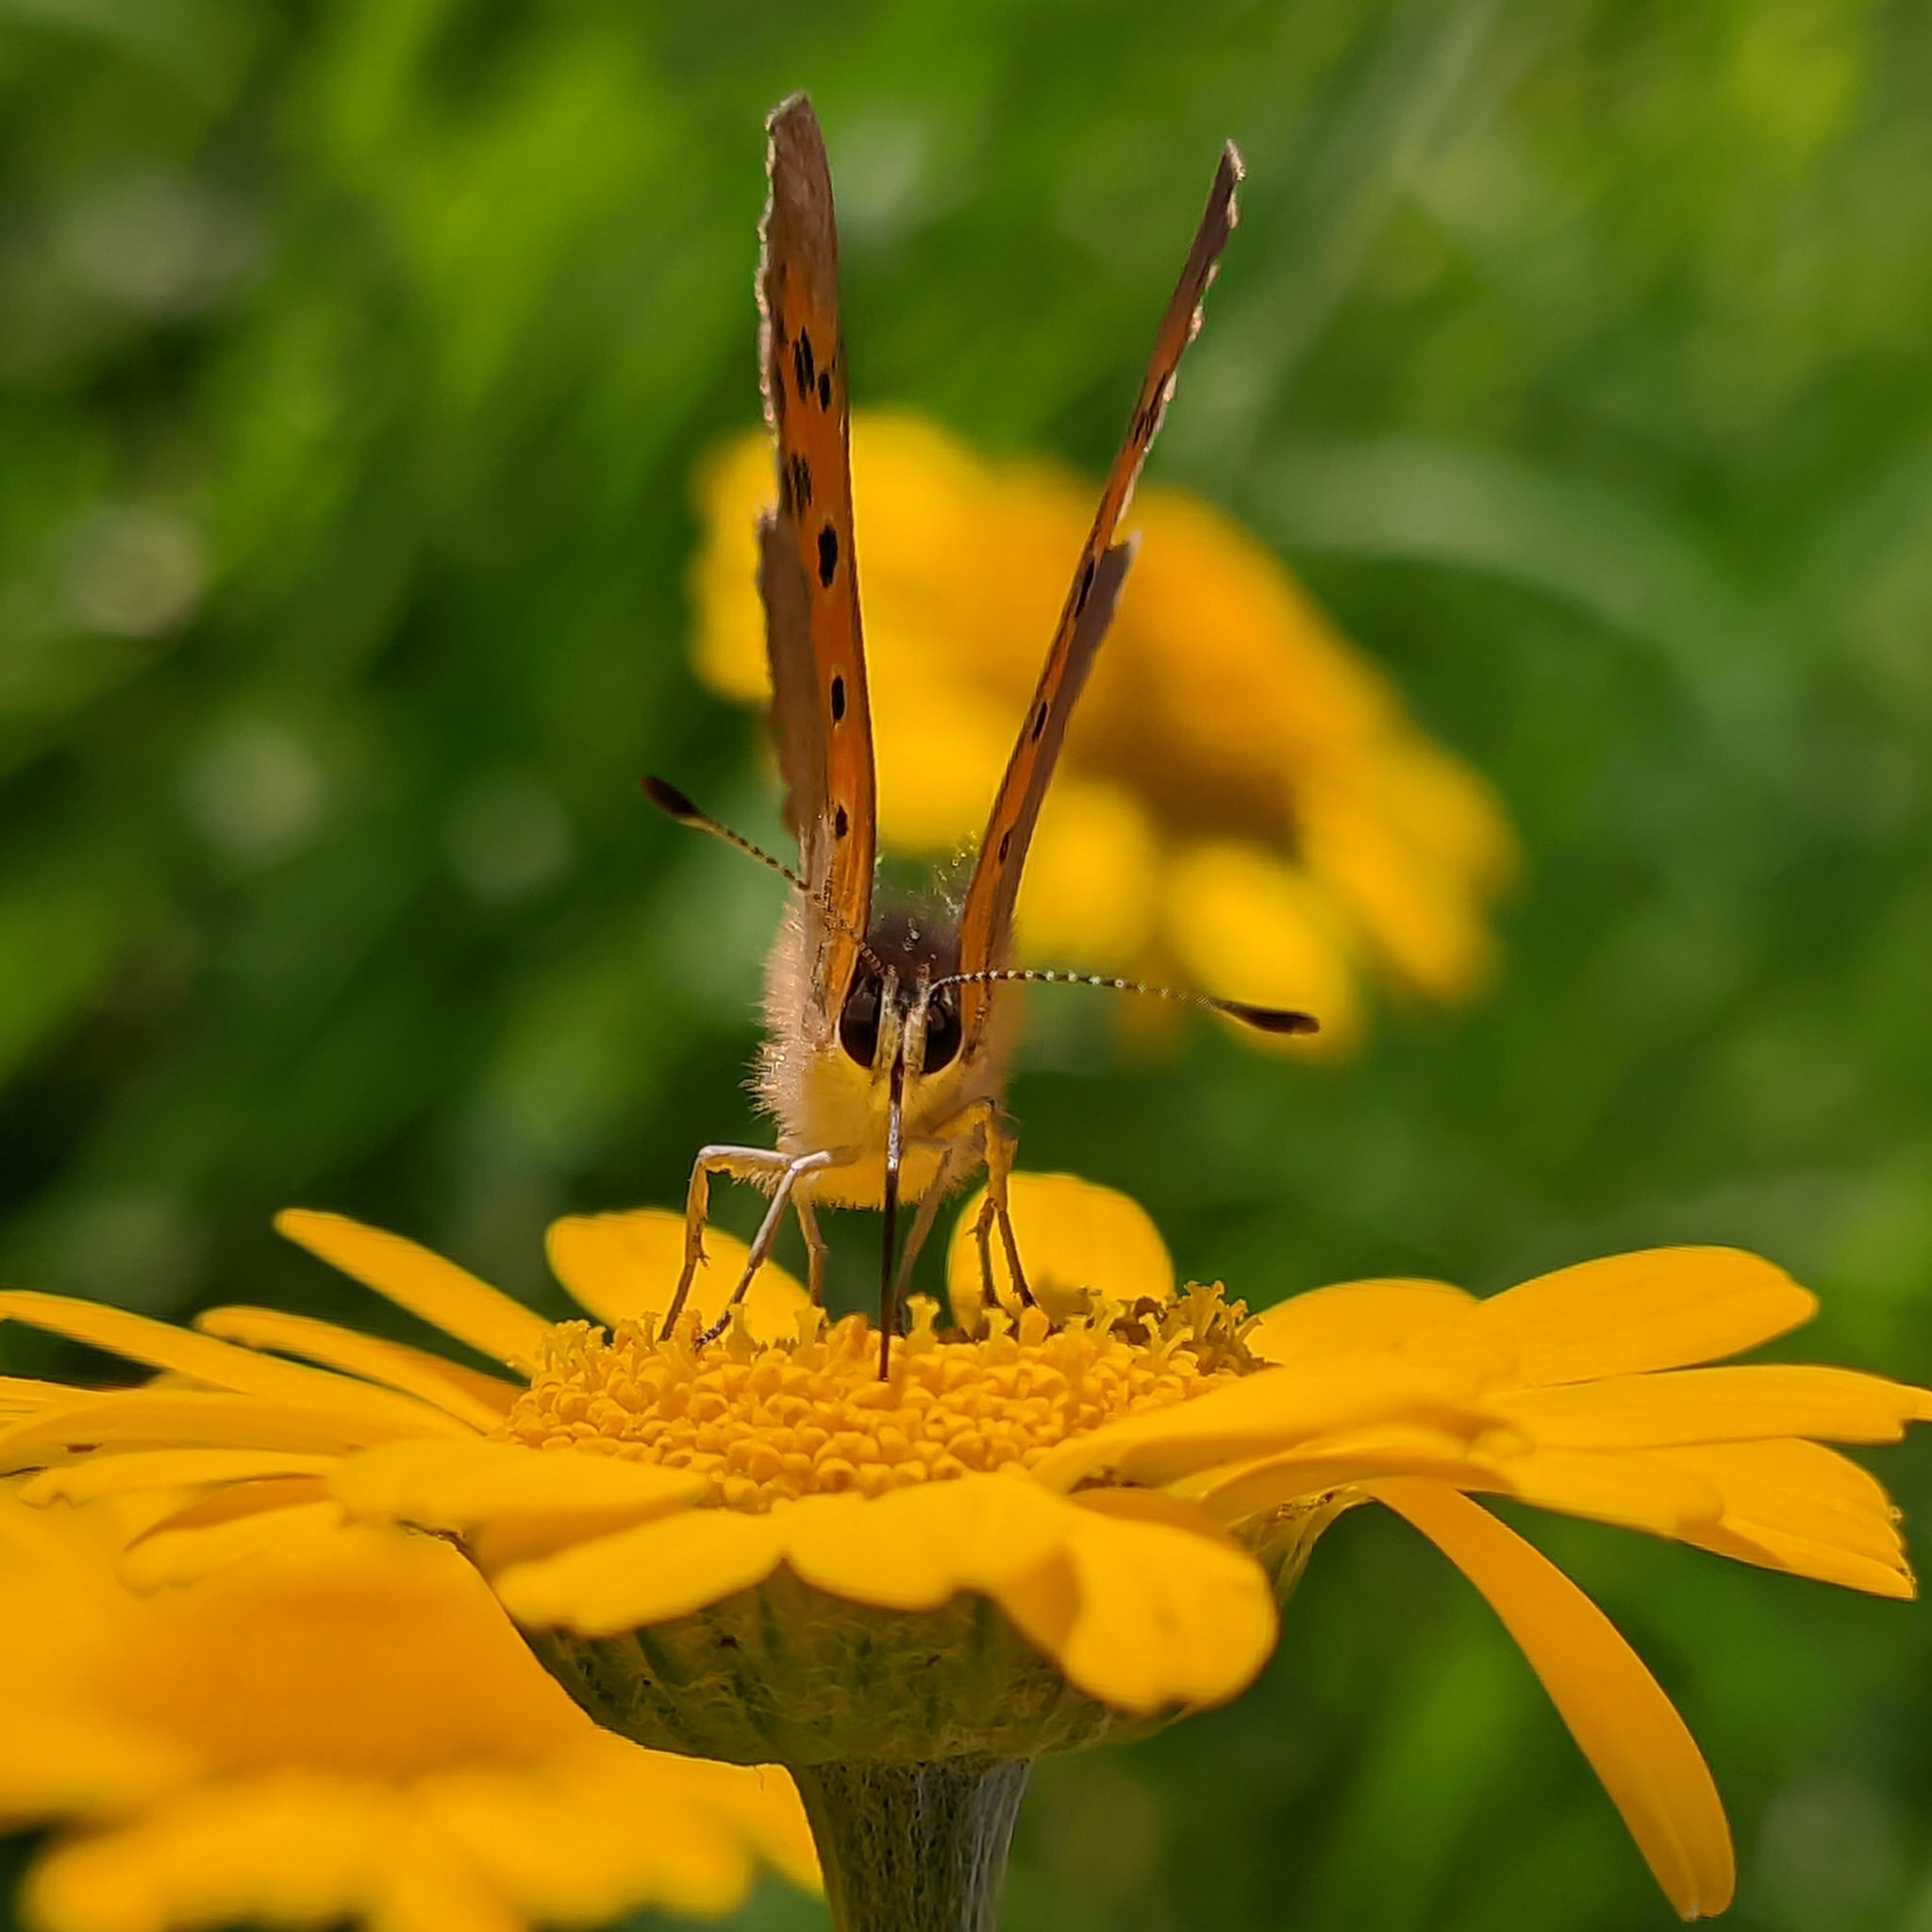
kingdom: Animalia
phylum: Arthropoda
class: Insecta
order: Lepidoptera
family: Lycaenidae
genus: Lycaena
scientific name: Lycaena phlaeas
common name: Small copper
